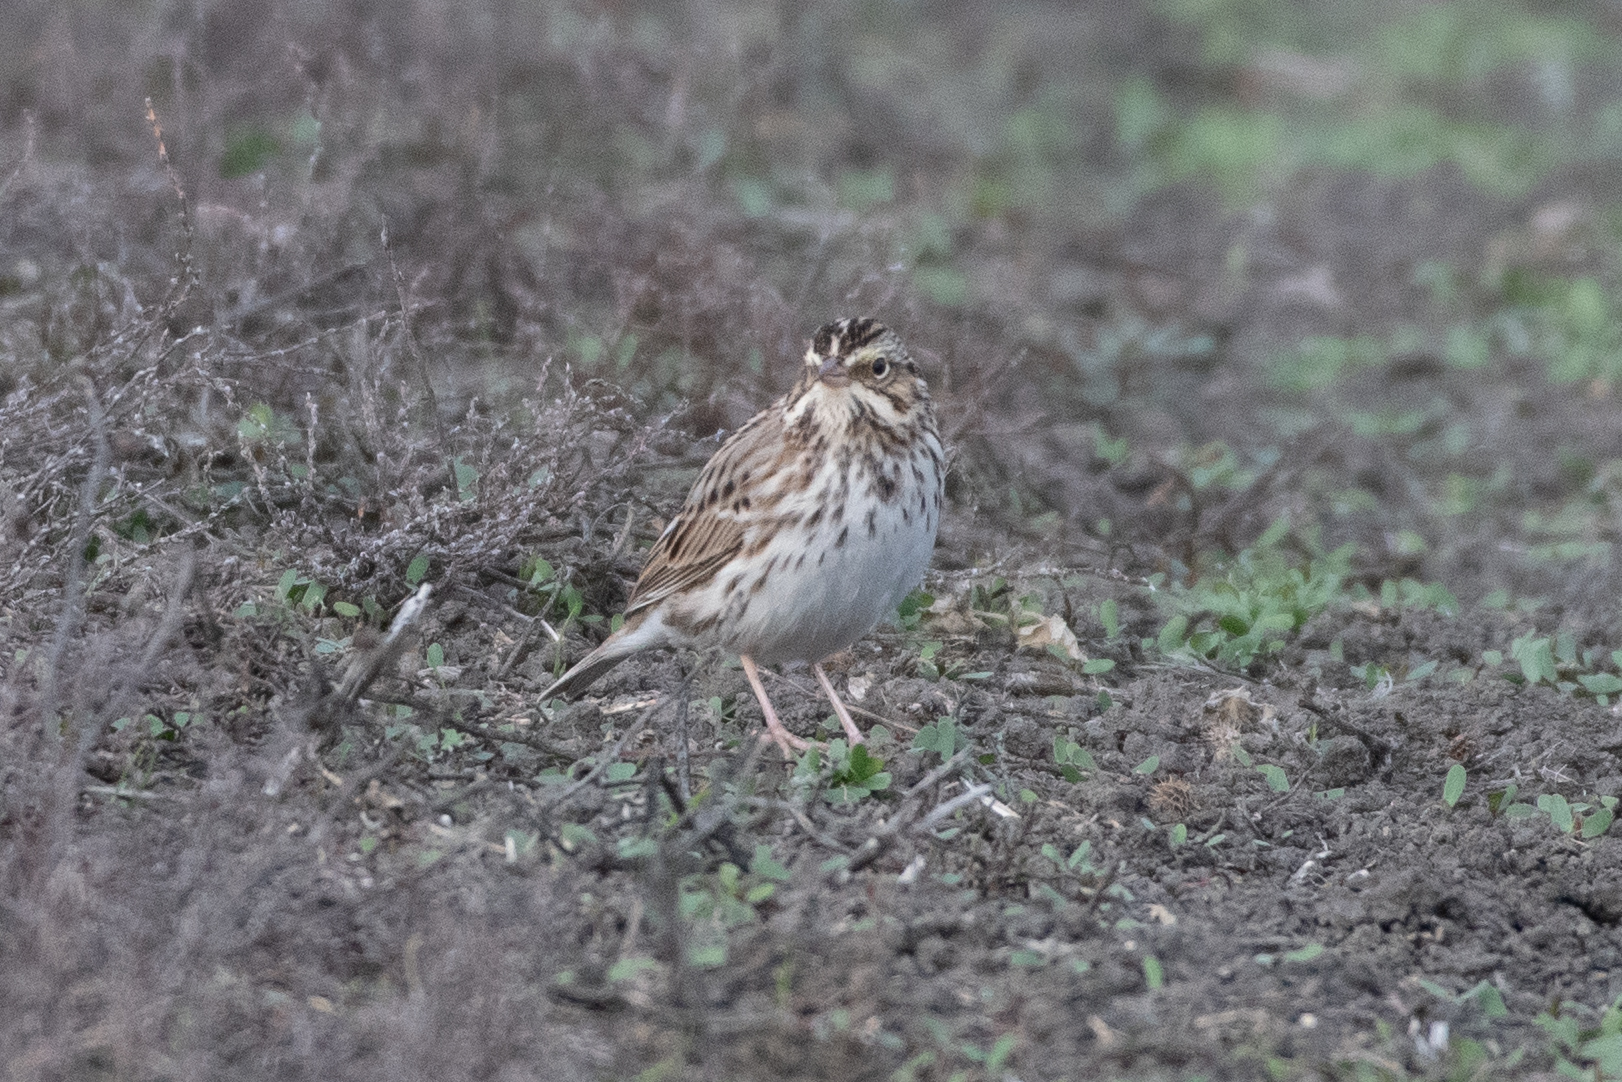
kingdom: Animalia
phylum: Chordata
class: Aves
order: Passeriformes
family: Passerellidae
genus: Passerculus
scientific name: Passerculus sandwichensis
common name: Savannah sparrow
